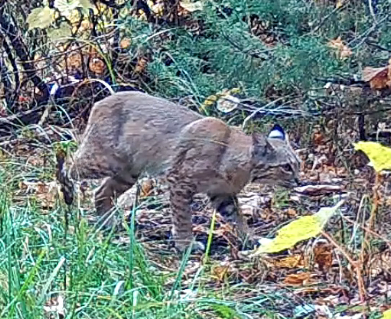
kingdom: Animalia
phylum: Chordata
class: Mammalia
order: Carnivora
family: Felidae
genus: Lynx
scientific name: Lynx rufus
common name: Bobcat
